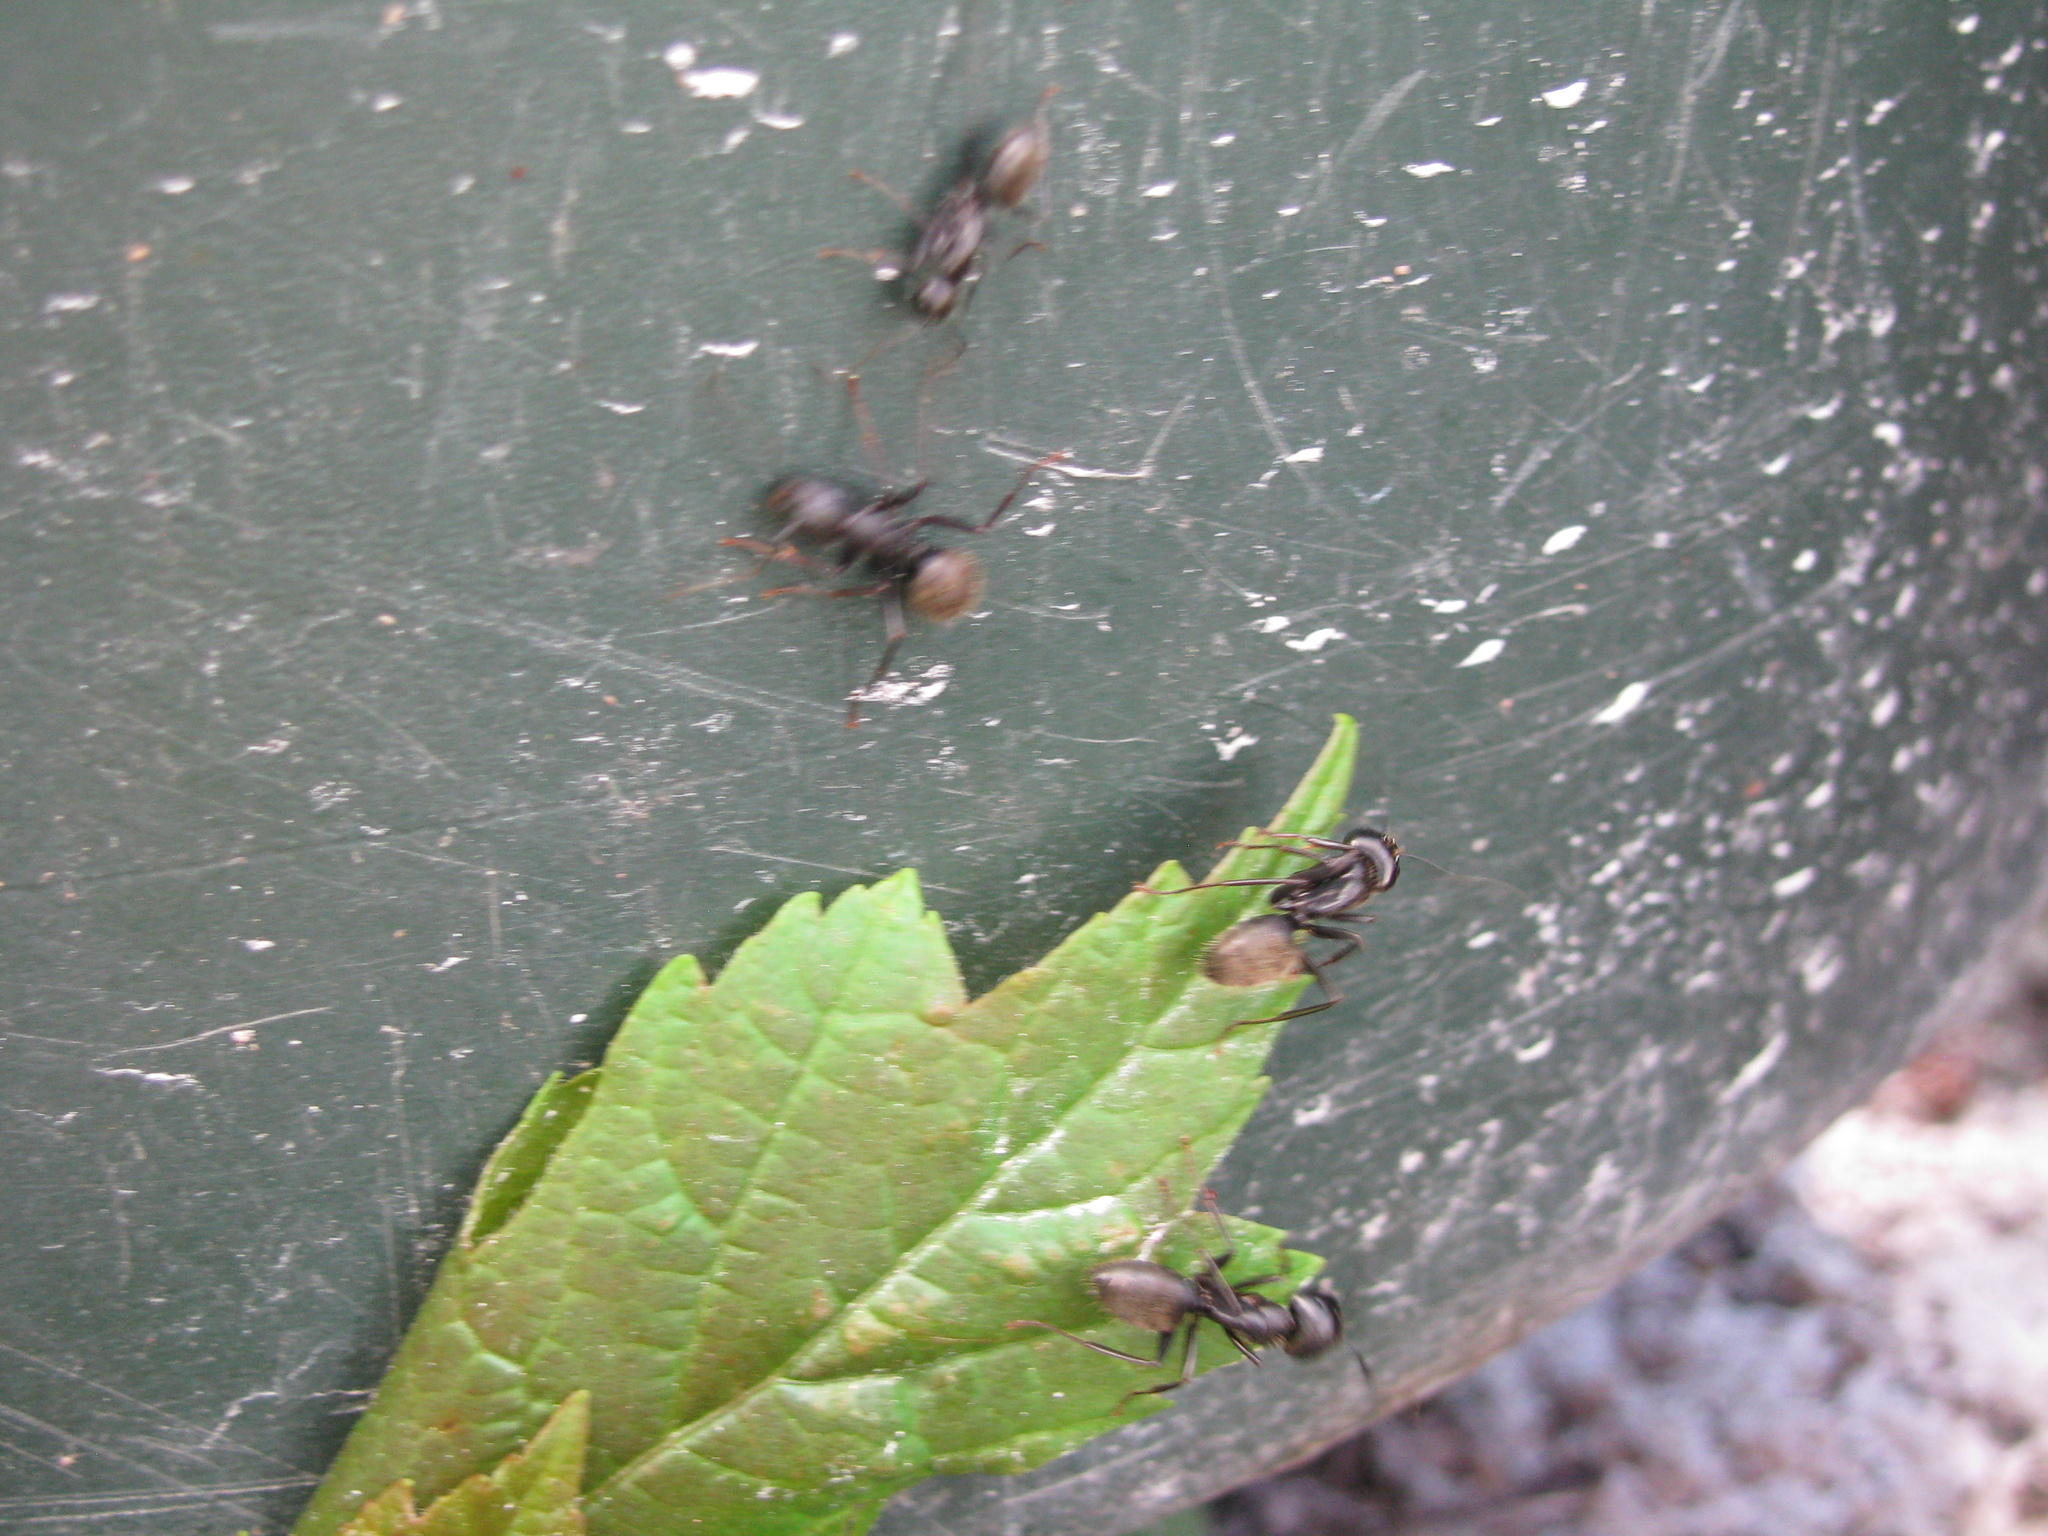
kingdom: Animalia
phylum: Arthropoda
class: Insecta
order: Hymenoptera
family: Formicidae
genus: Camponotus
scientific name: Camponotus pennsylvanicus
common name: Black carpenter ant
